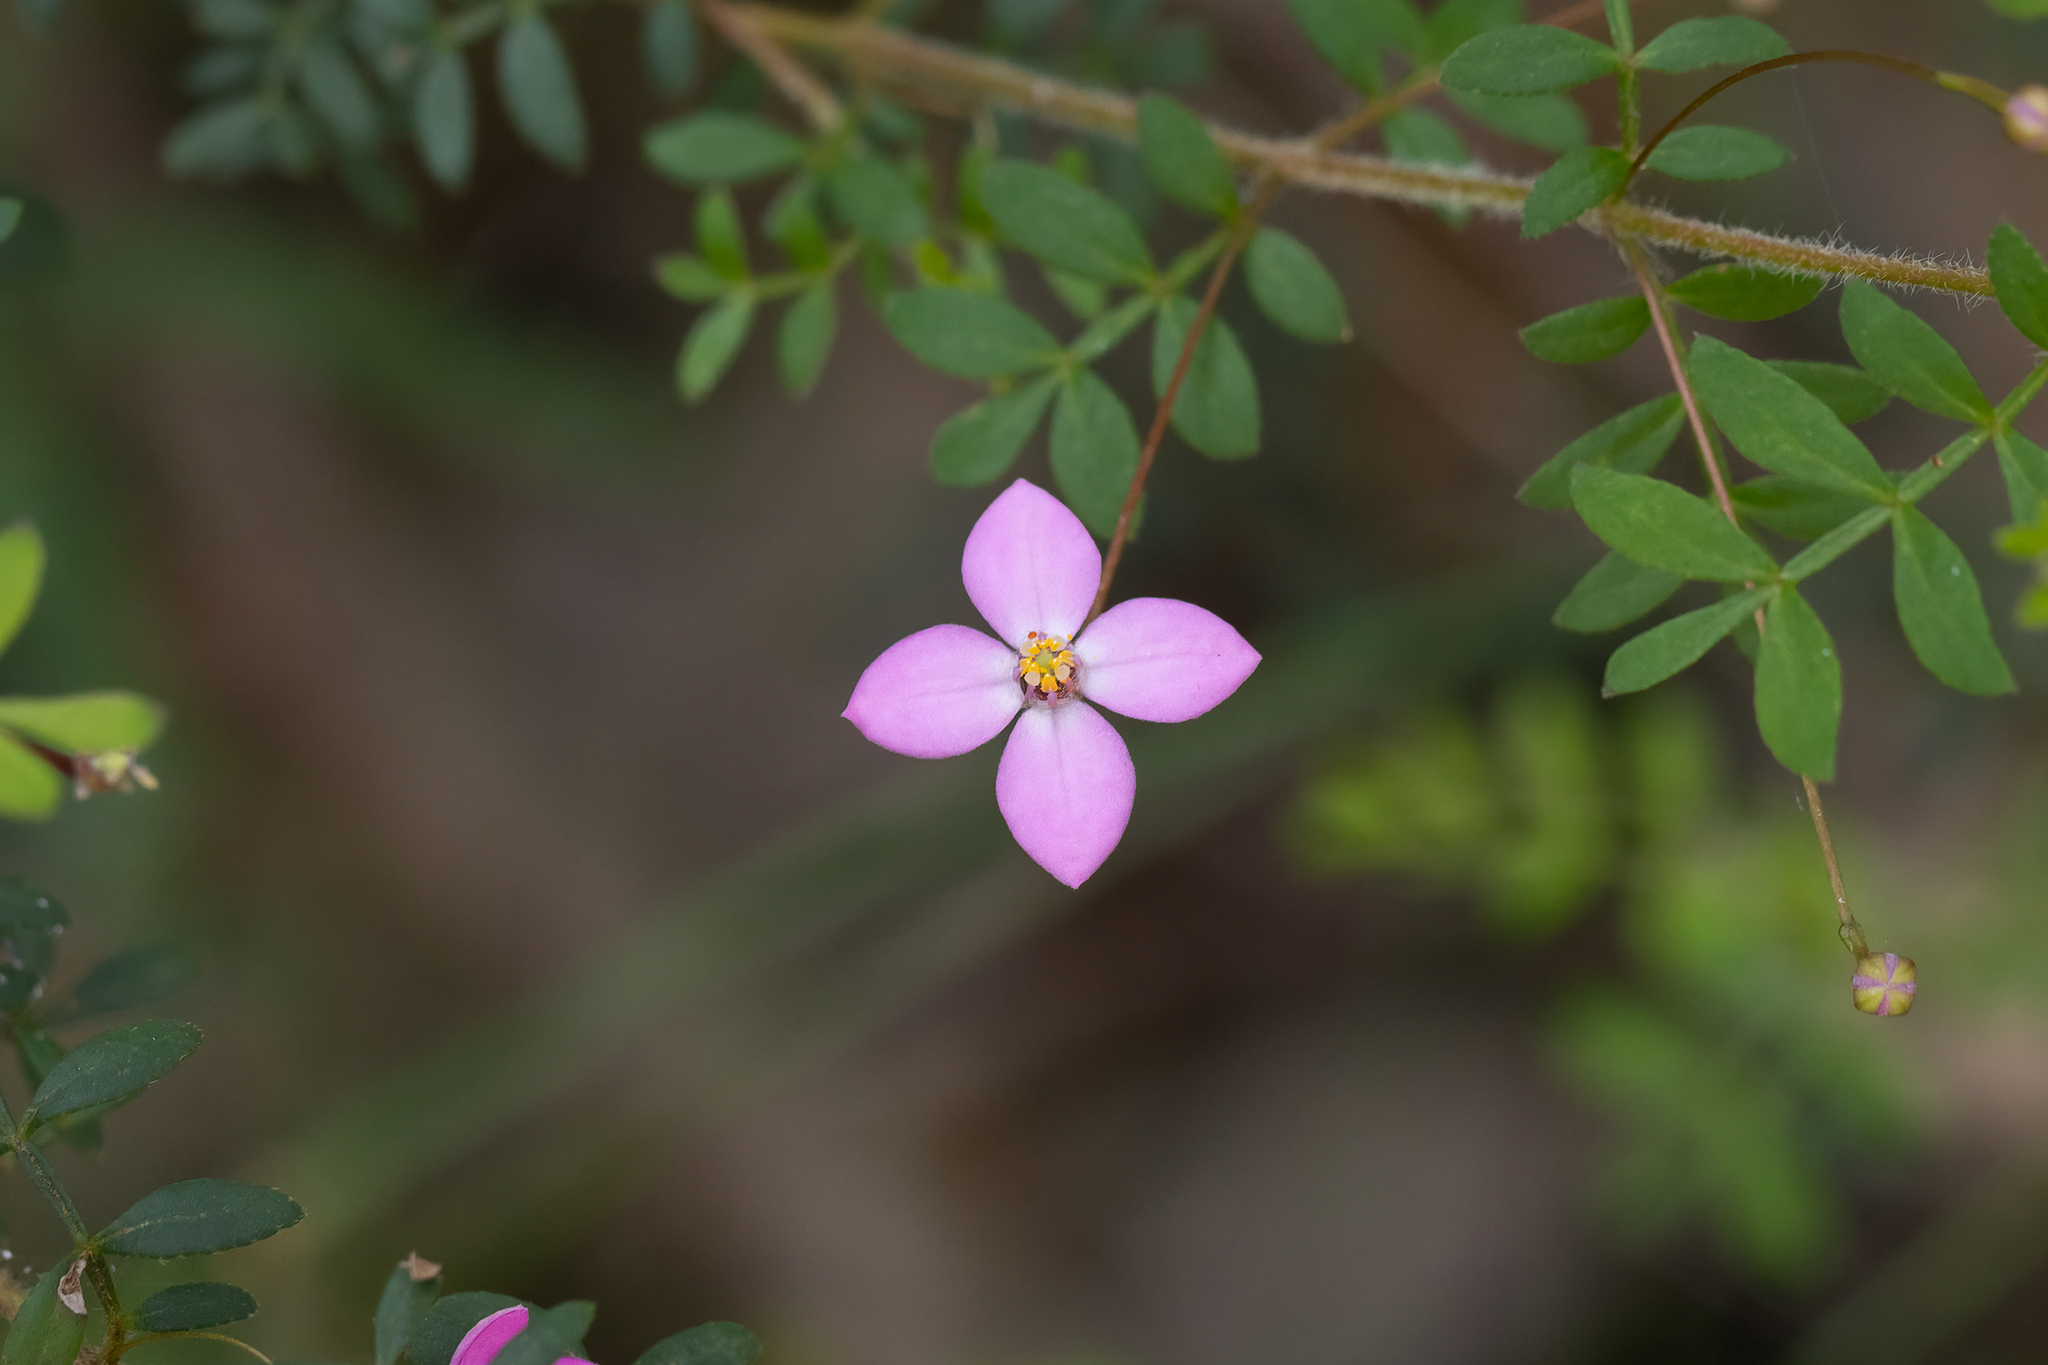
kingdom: Plantae
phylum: Tracheophyta
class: Magnoliopsida
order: Sapindales
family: Rutaceae
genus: Boronia
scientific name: Boronia gracilipes
